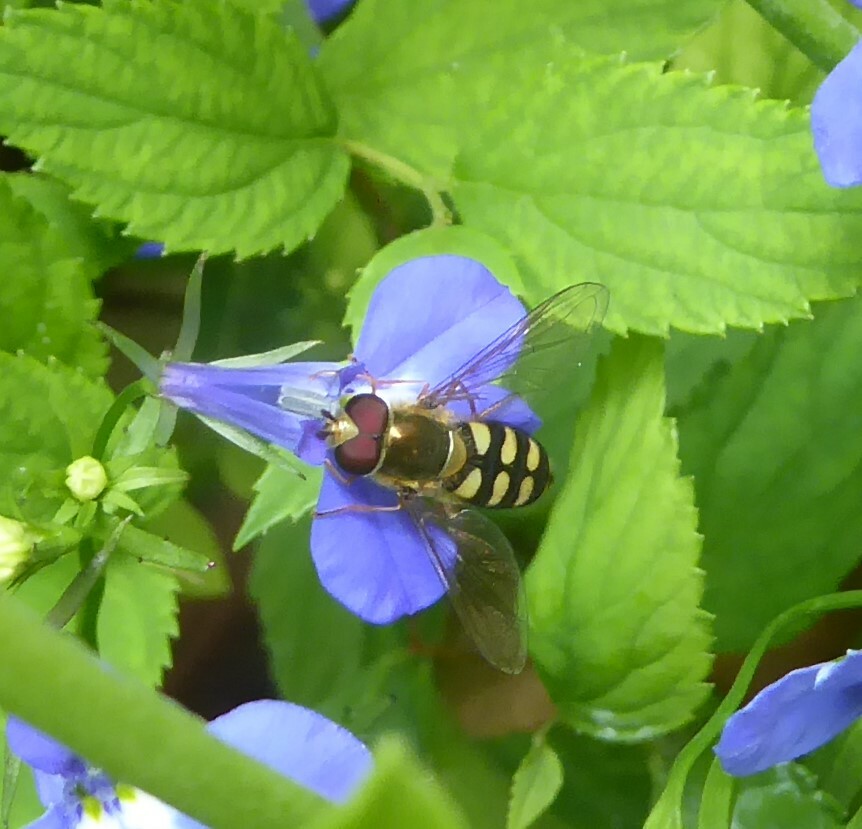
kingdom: Animalia
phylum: Arthropoda
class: Insecta
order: Diptera
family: Syrphidae
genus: Eupeodes
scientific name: Eupeodes
